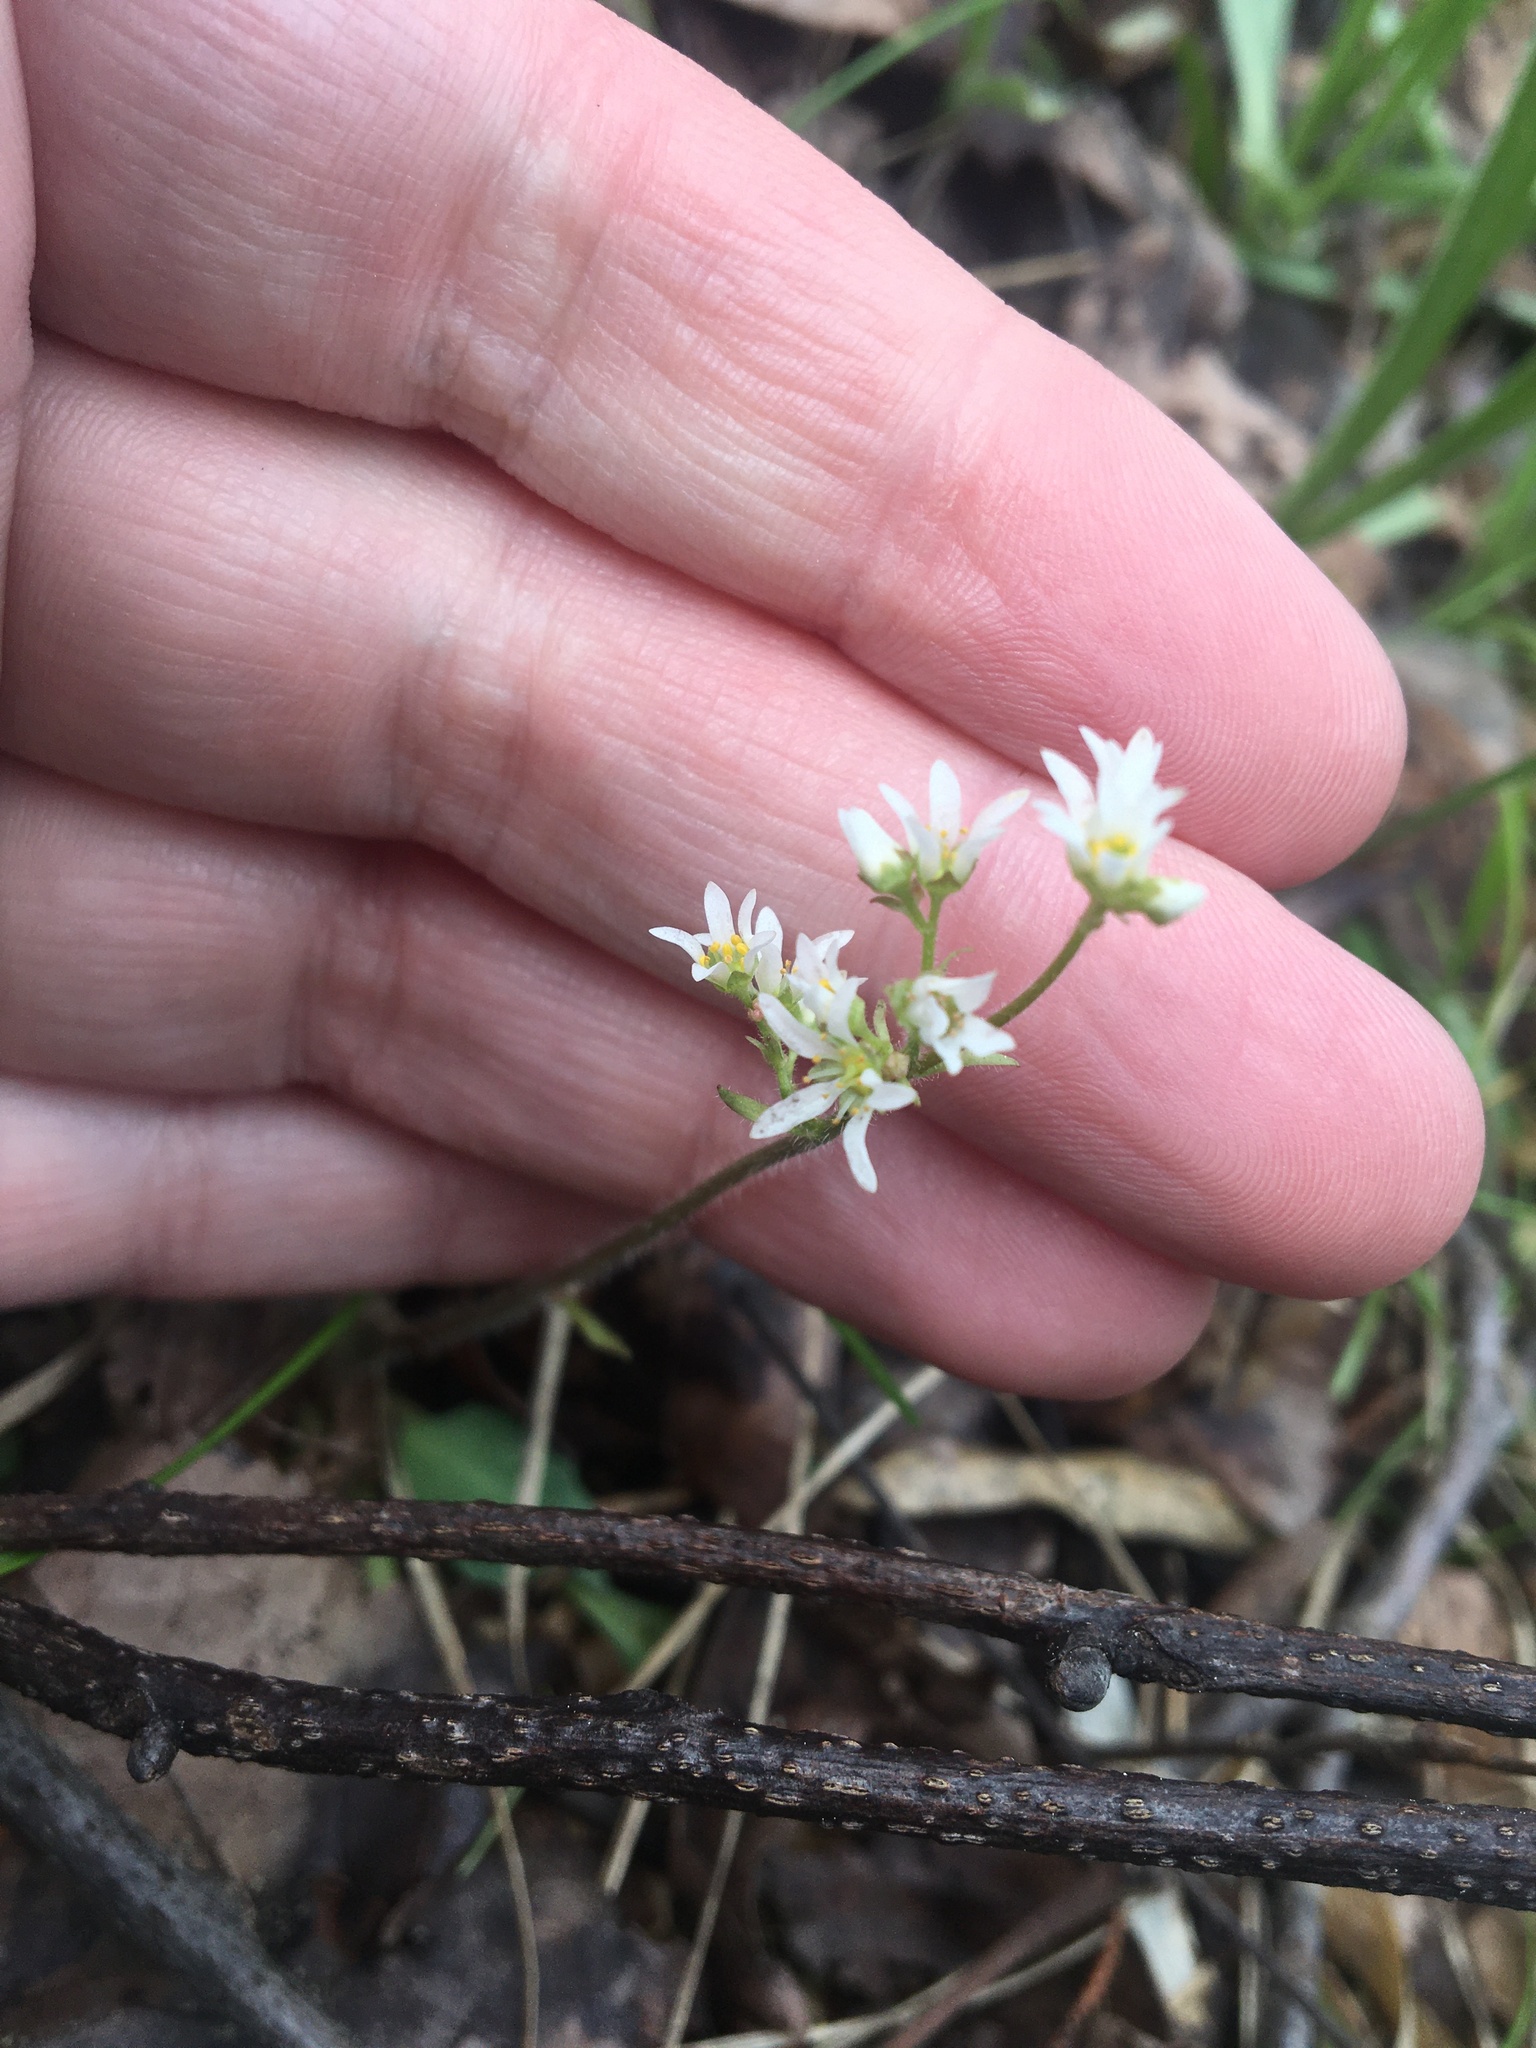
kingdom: Plantae
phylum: Tracheophyta
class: Magnoliopsida
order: Saxifragales
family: Saxifragaceae
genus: Micranthes
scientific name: Micranthes virginiensis
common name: Early saxifrage
